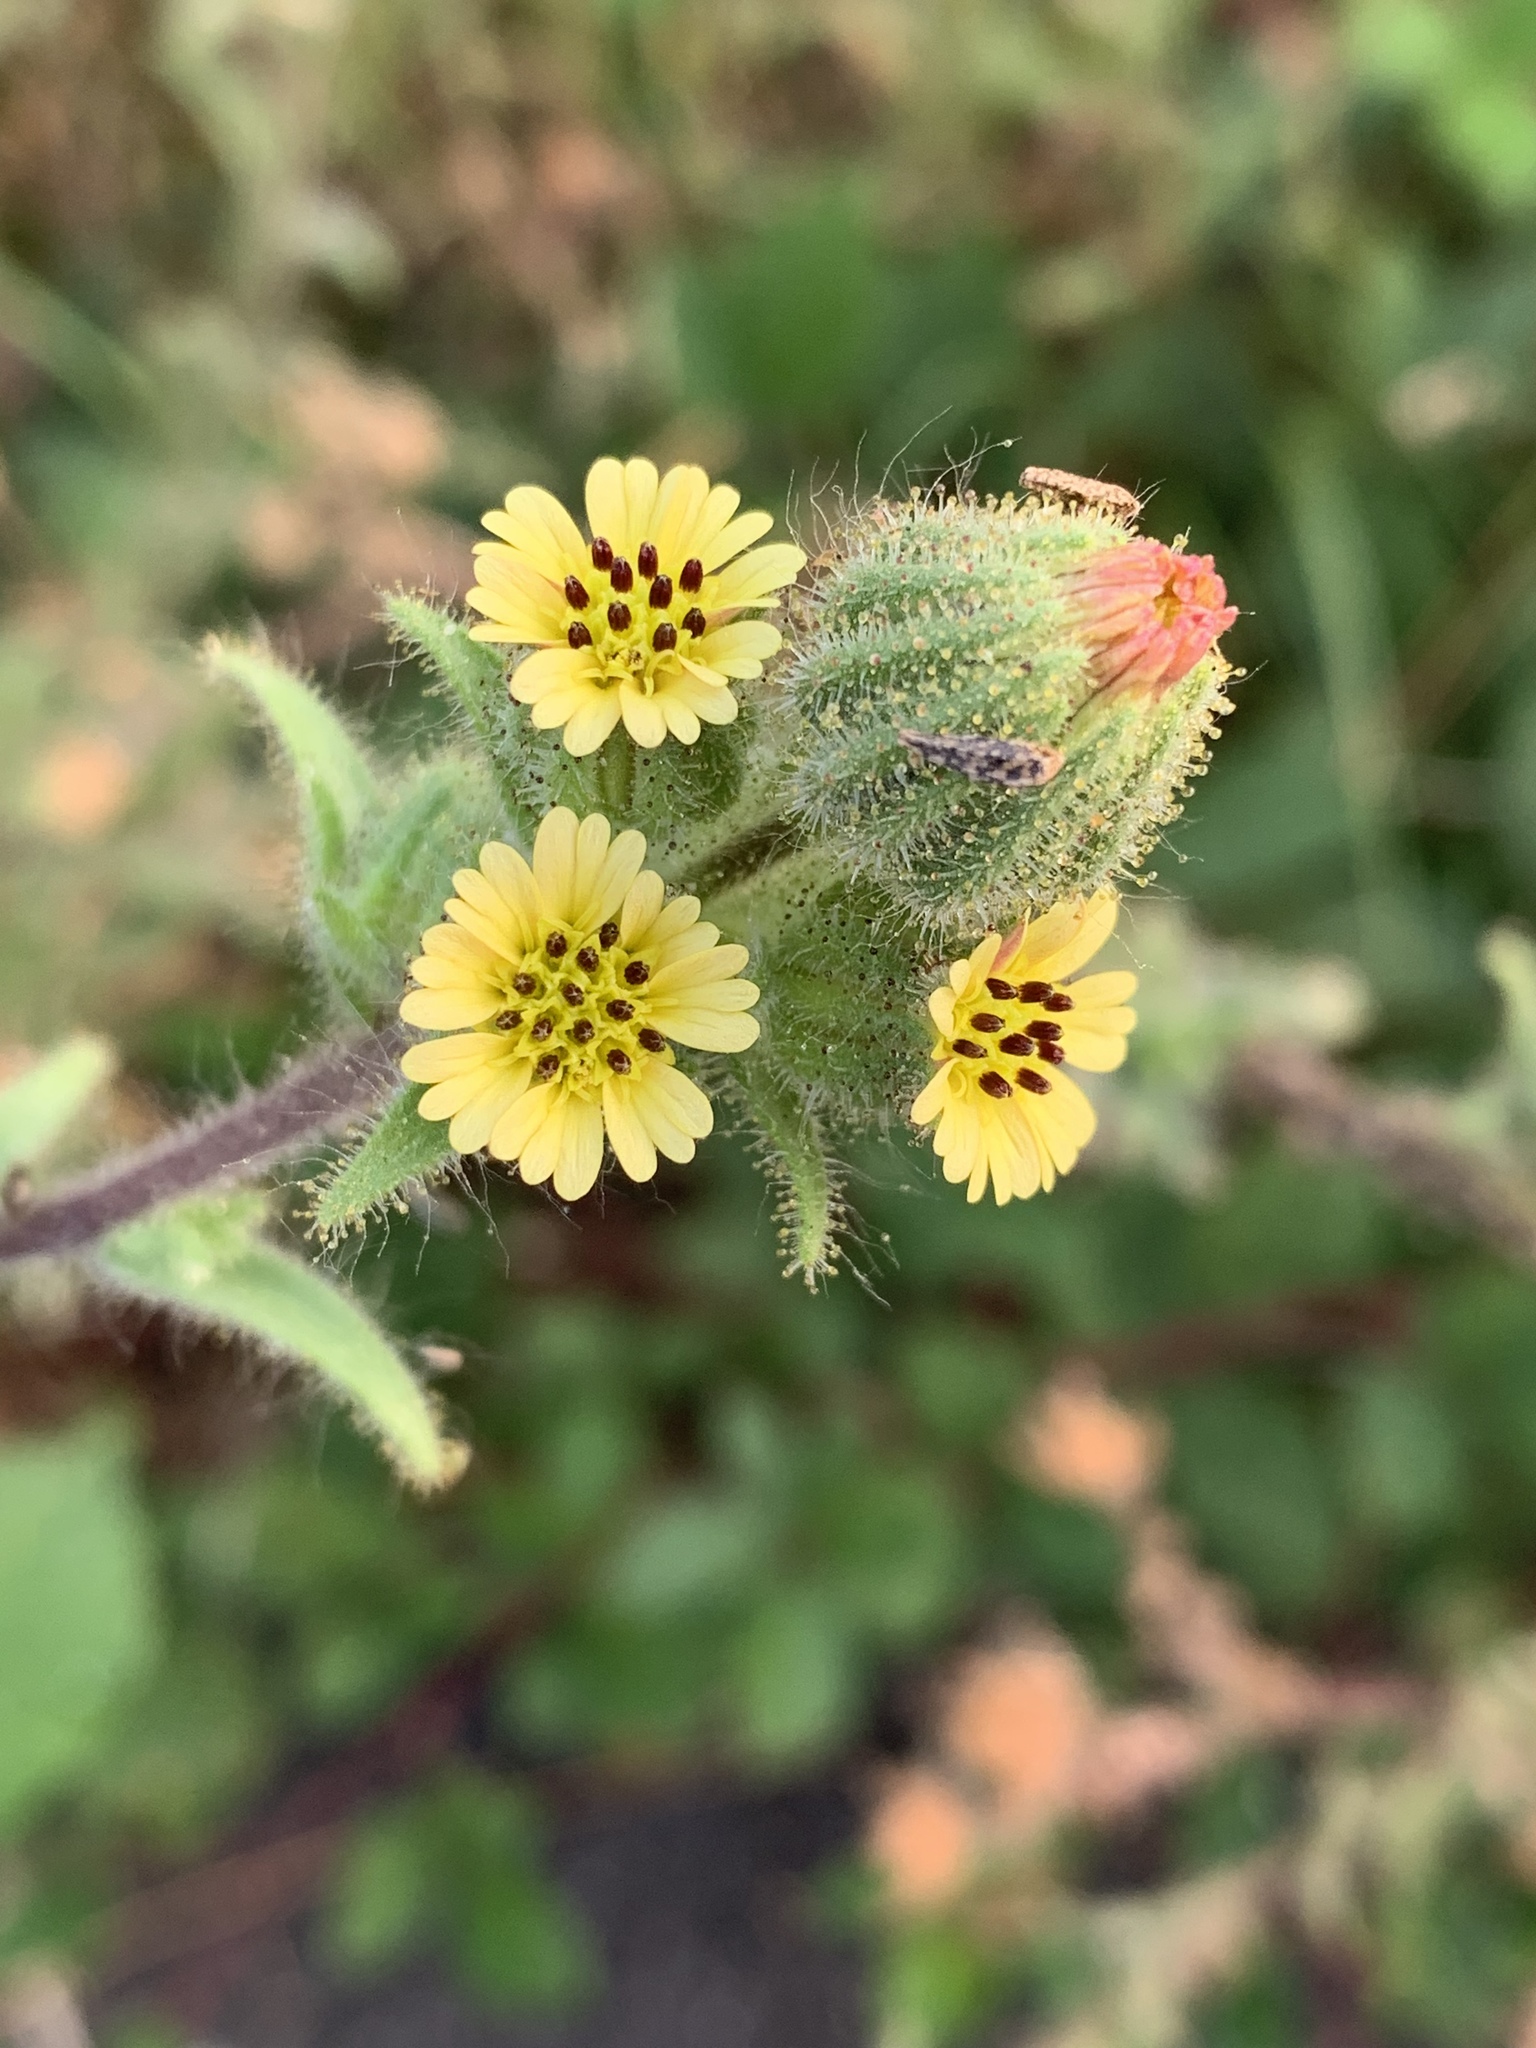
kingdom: Plantae
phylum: Tracheophyta
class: Magnoliopsida
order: Asterales
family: Asteraceae
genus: Madia
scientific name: Madia sativa
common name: Coast tarweed
